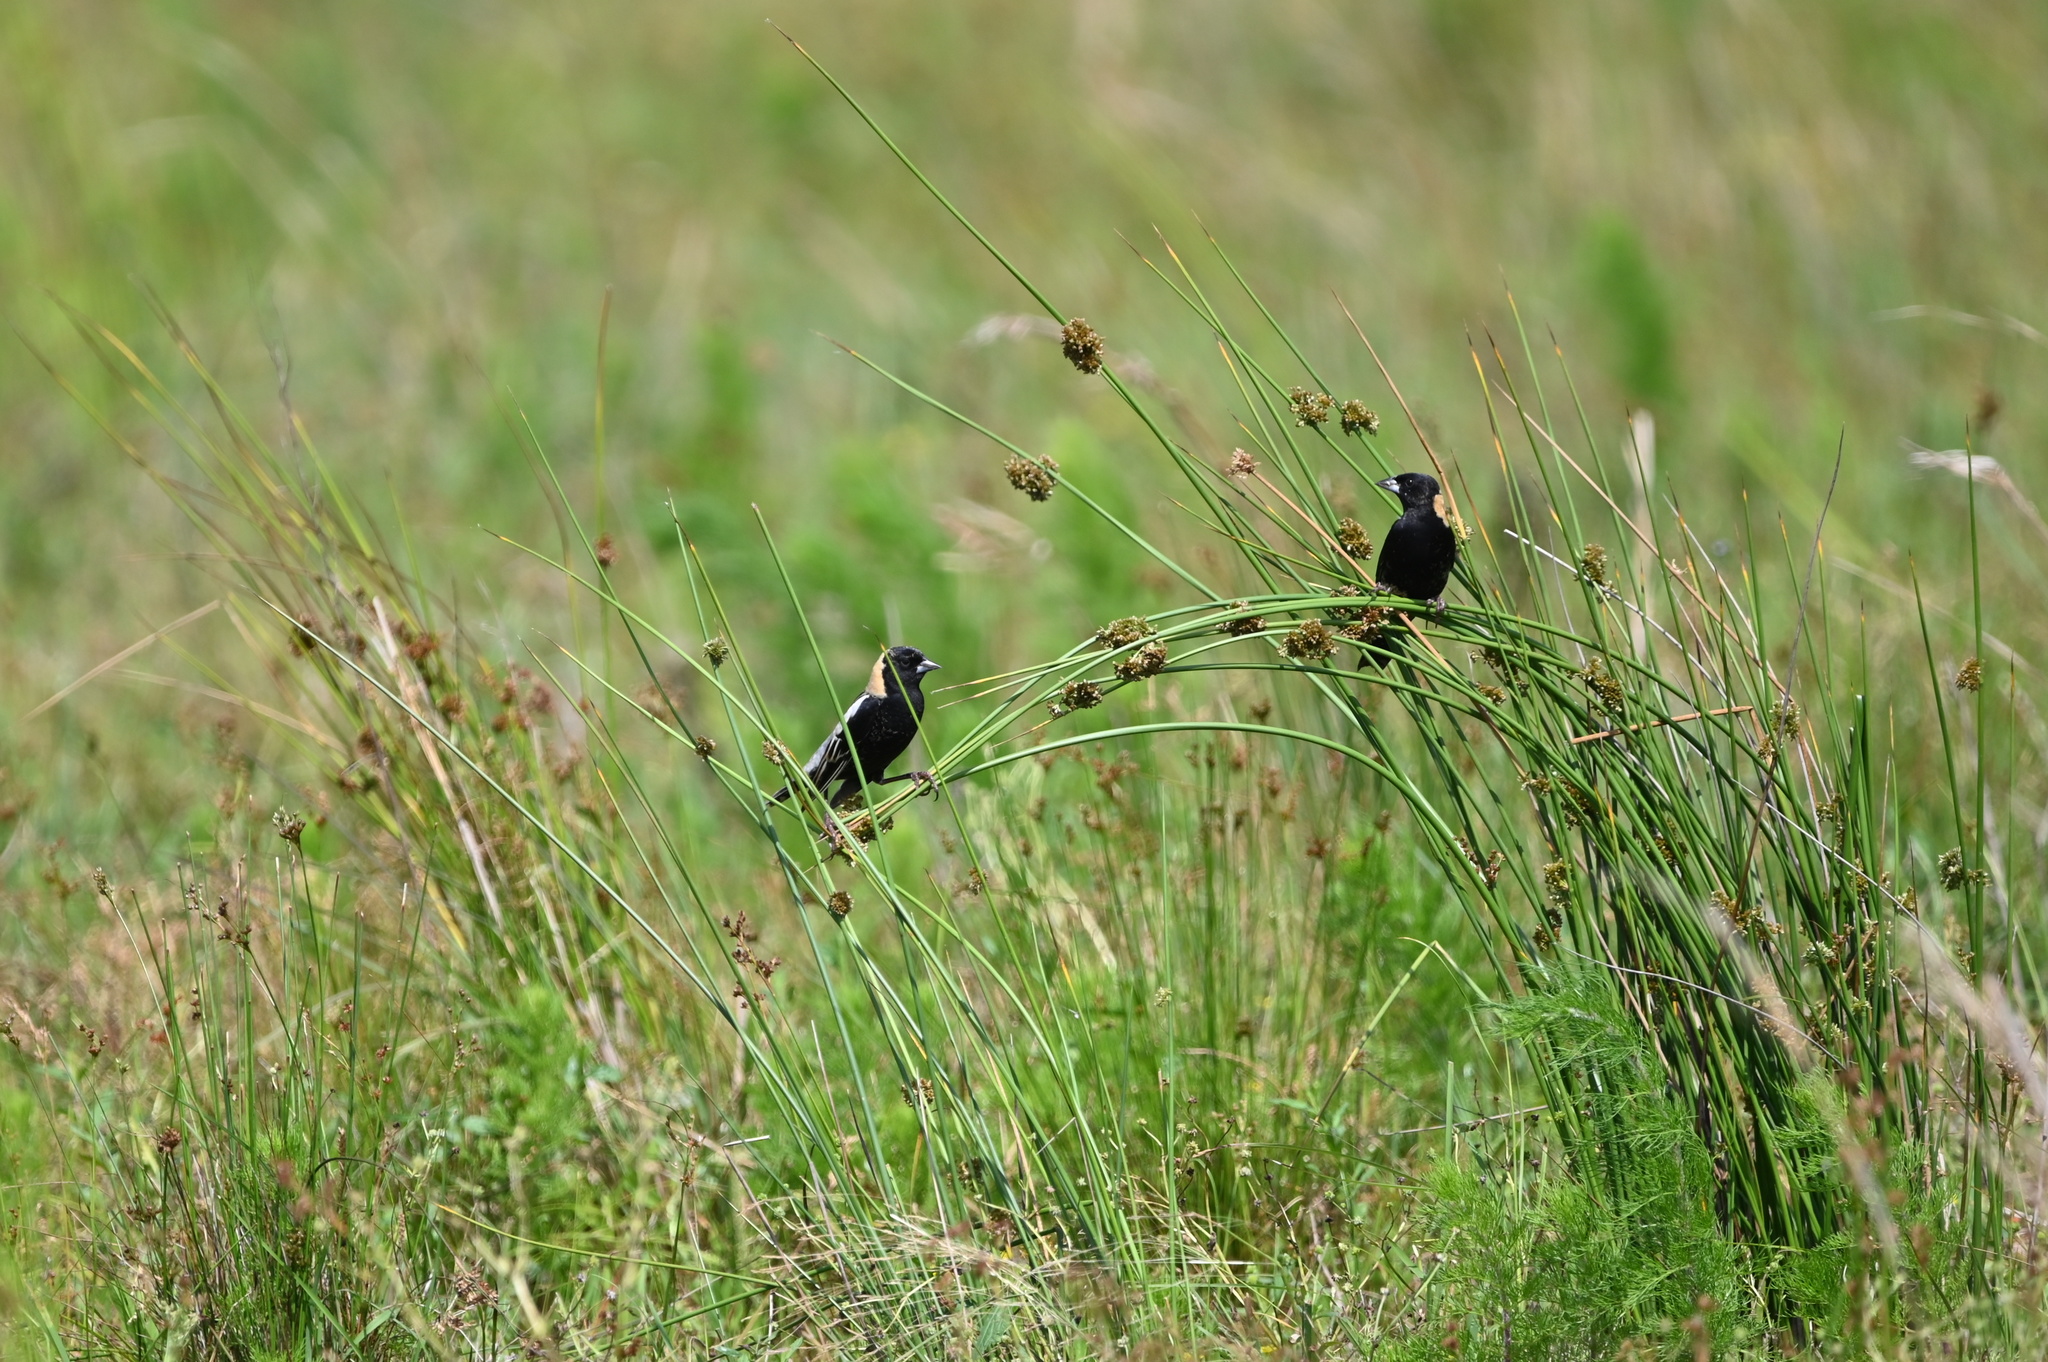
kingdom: Animalia
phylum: Chordata
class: Aves
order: Passeriformes
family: Icteridae
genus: Dolichonyx
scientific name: Dolichonyx oryzivorus
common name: Bobolink
